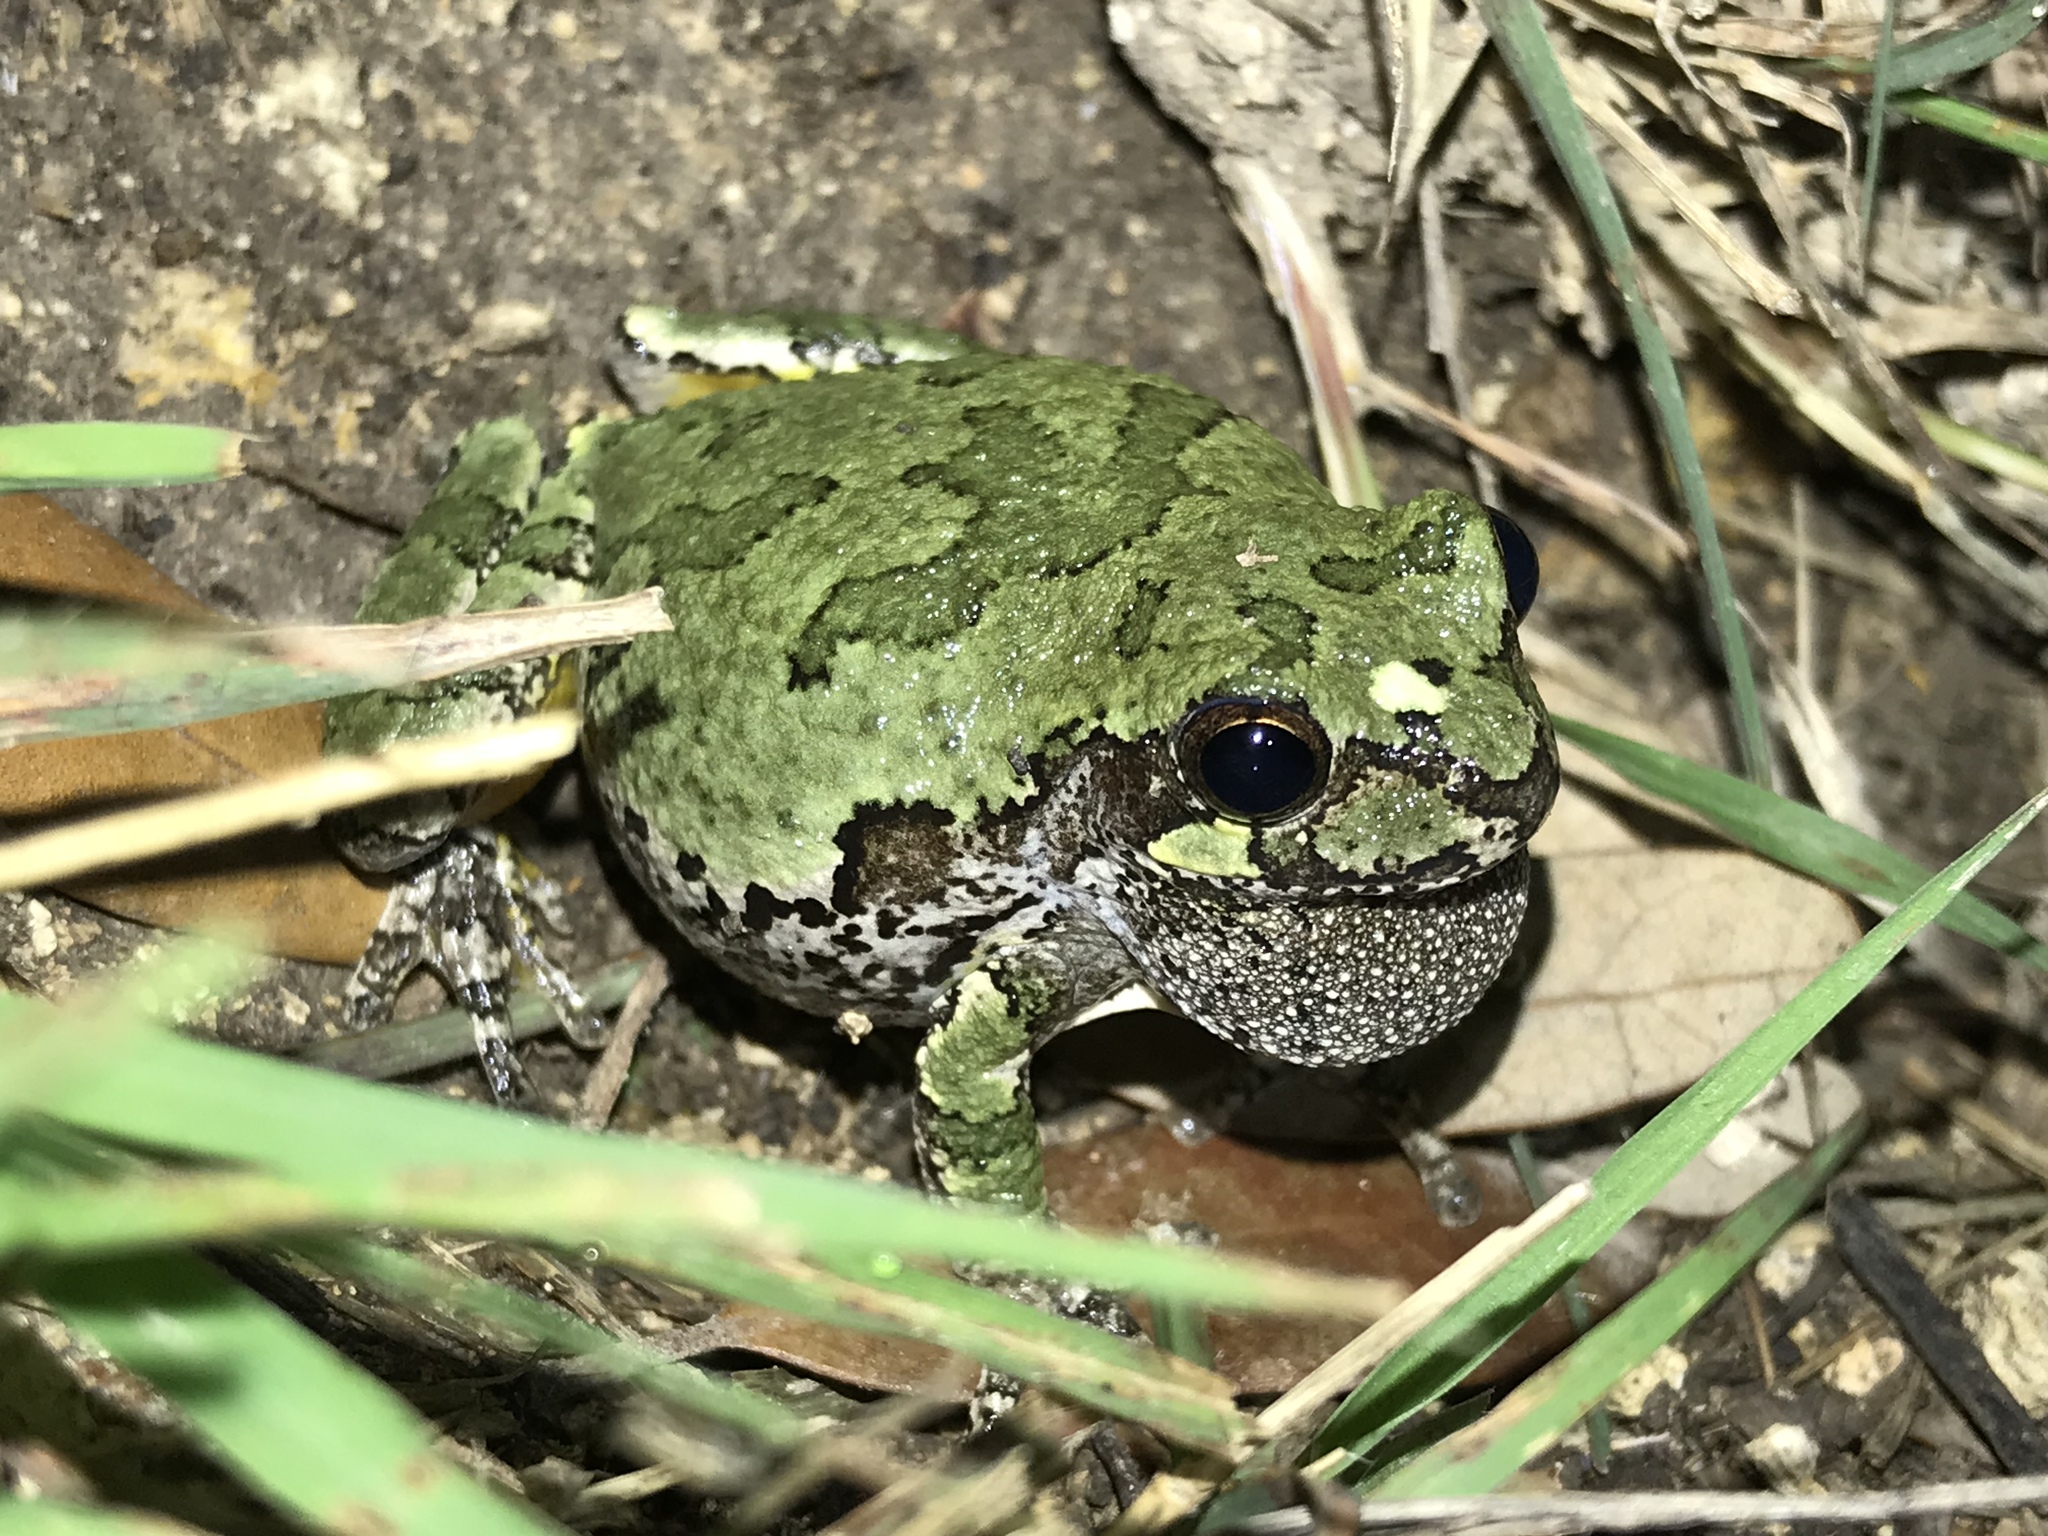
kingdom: Animalia
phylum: Chordata
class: Amphibia
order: Anura
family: Hylidae
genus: Dryophytes
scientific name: Dryophytes chrysoscelis
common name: Cope's gray treefrog
